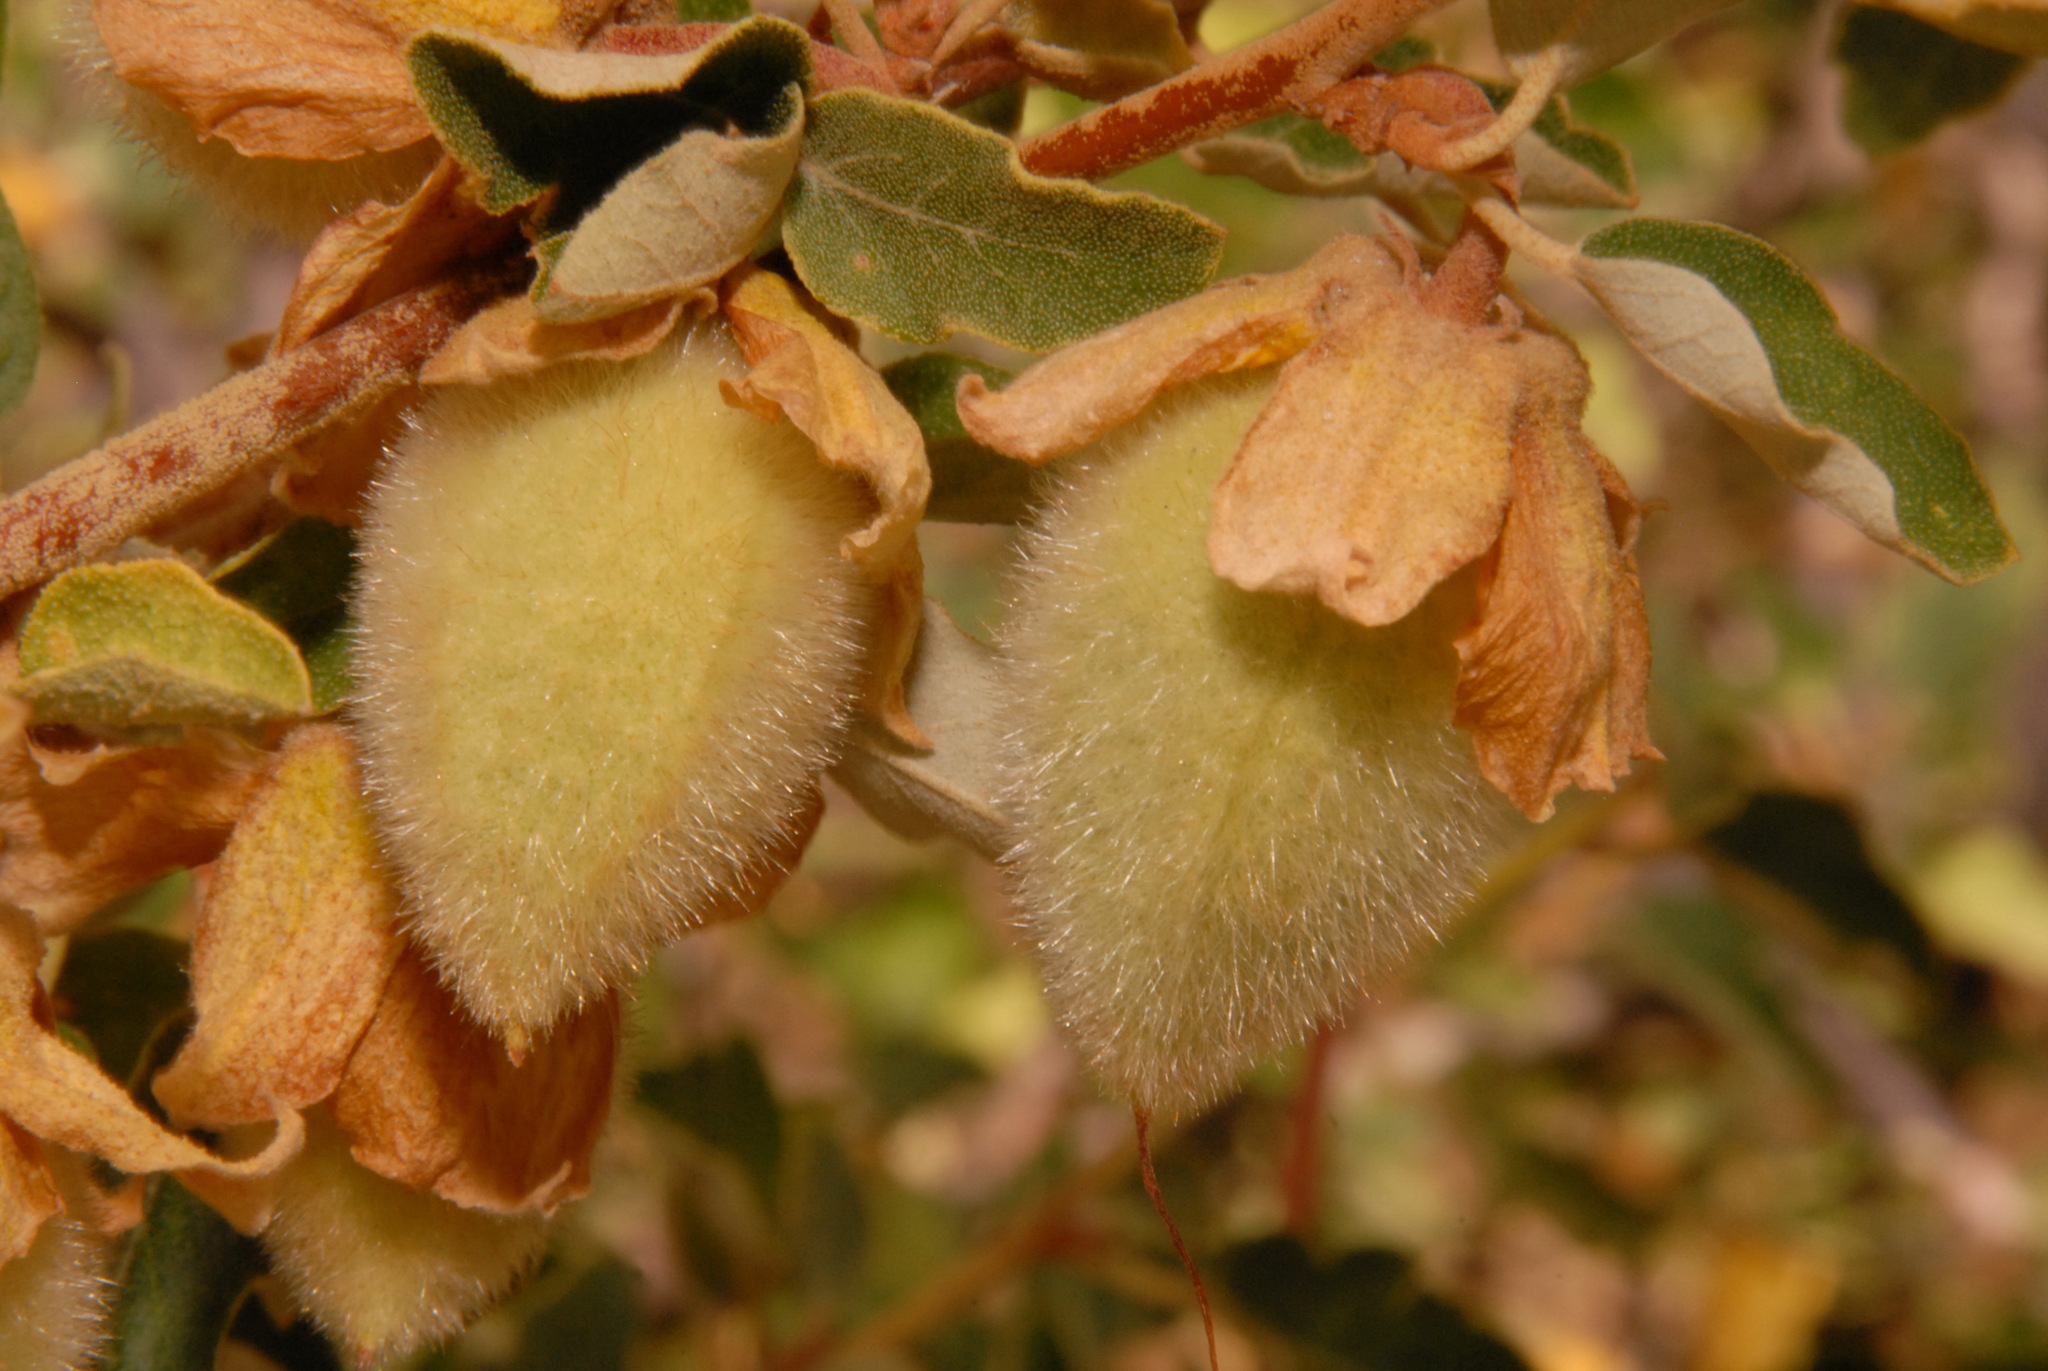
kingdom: Plantae
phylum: Tracheophyta
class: Magnoliopsida
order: Malvales
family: Malvaceae
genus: Fremontodendron
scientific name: Fremontodendron californicum
